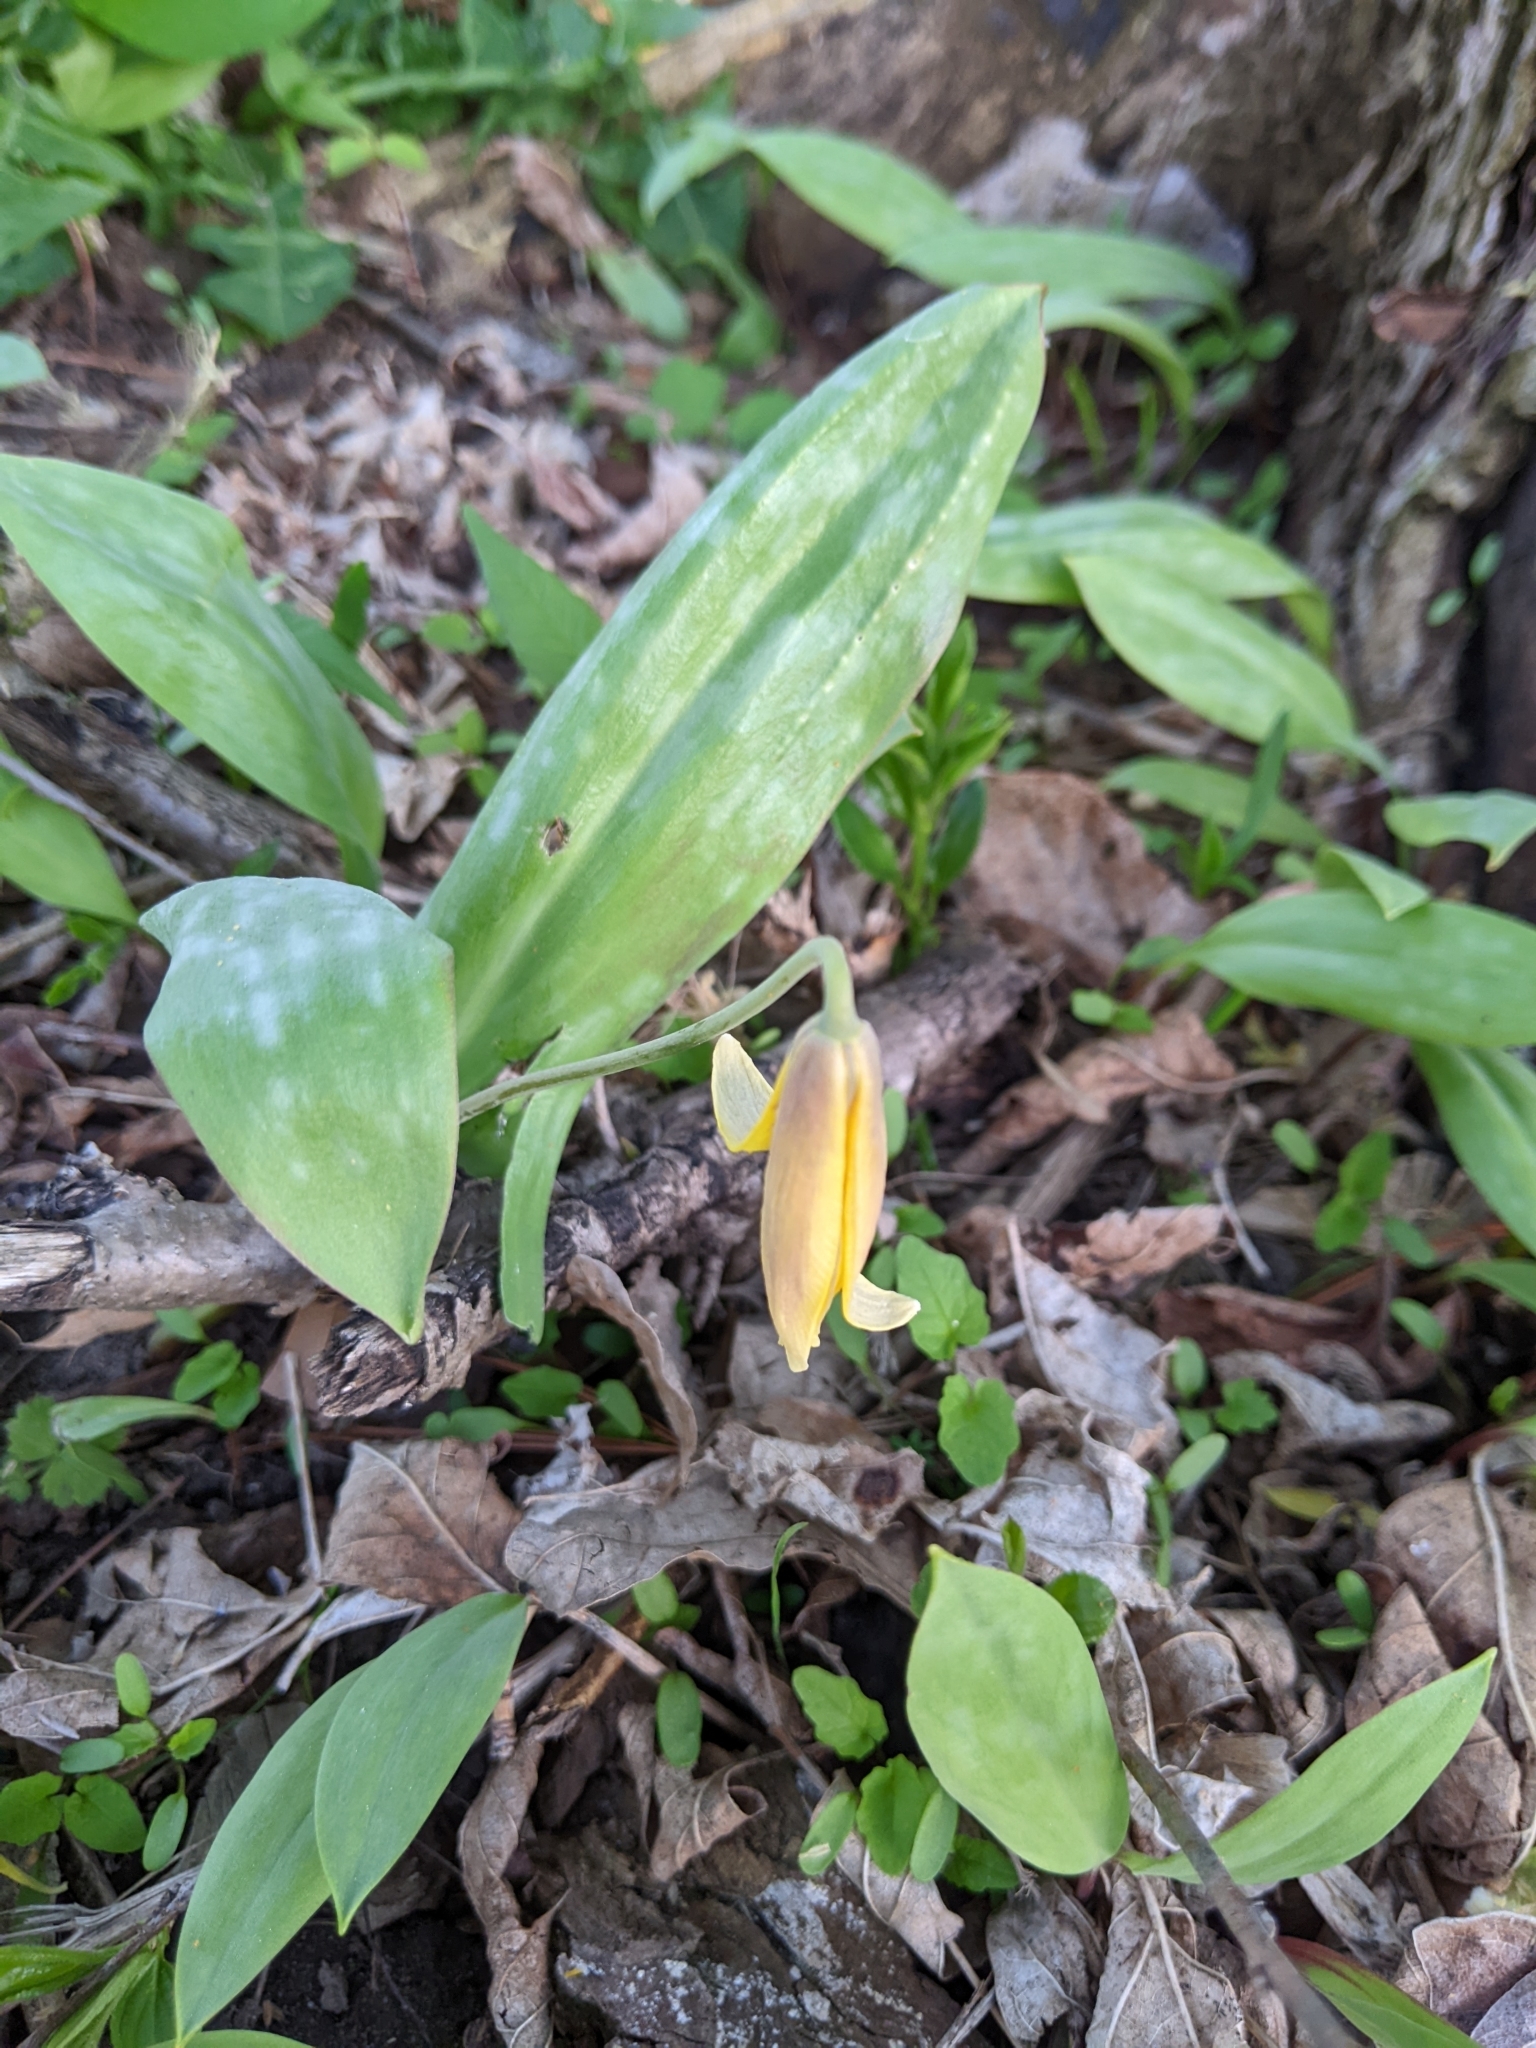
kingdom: Plantae
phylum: Tracheophyta
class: Liliopsida
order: Liliales
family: Liliaceae
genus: Erythronium
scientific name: Erythronium americanum
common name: Yellow adder's-tongue
